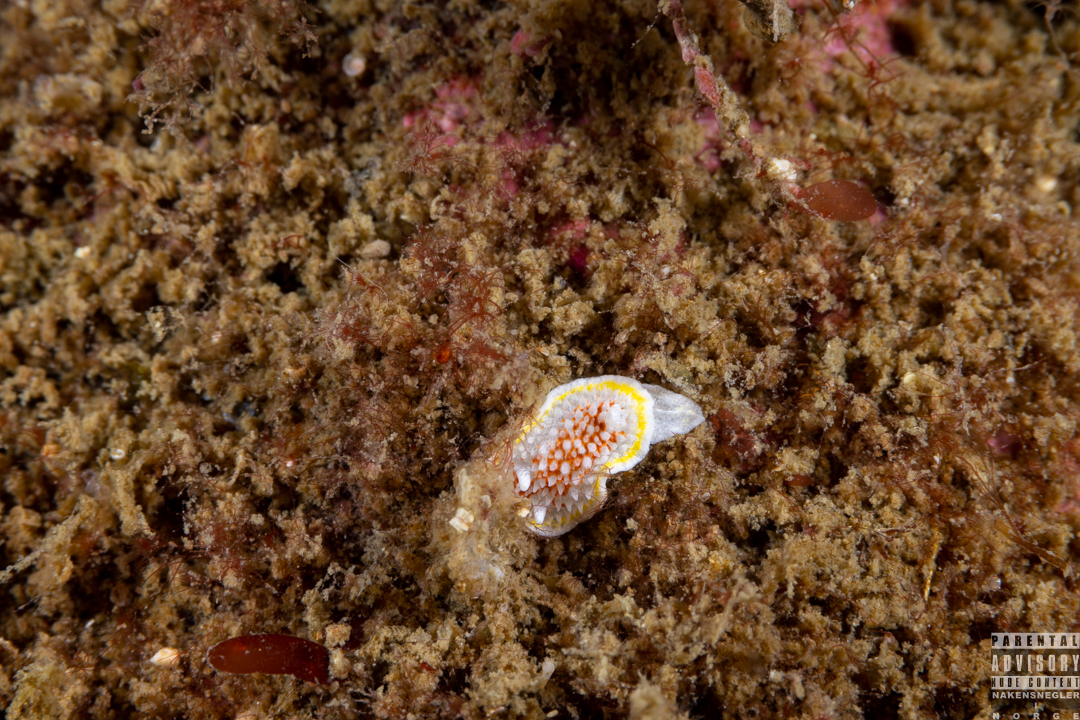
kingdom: Animalia
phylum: Mollusca
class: Gastropoda
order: Nudibranchia
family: Calycidorididae
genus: Diaphorodoris
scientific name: Diaphorodoris luteocincta
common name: Fried egg nudibranch
